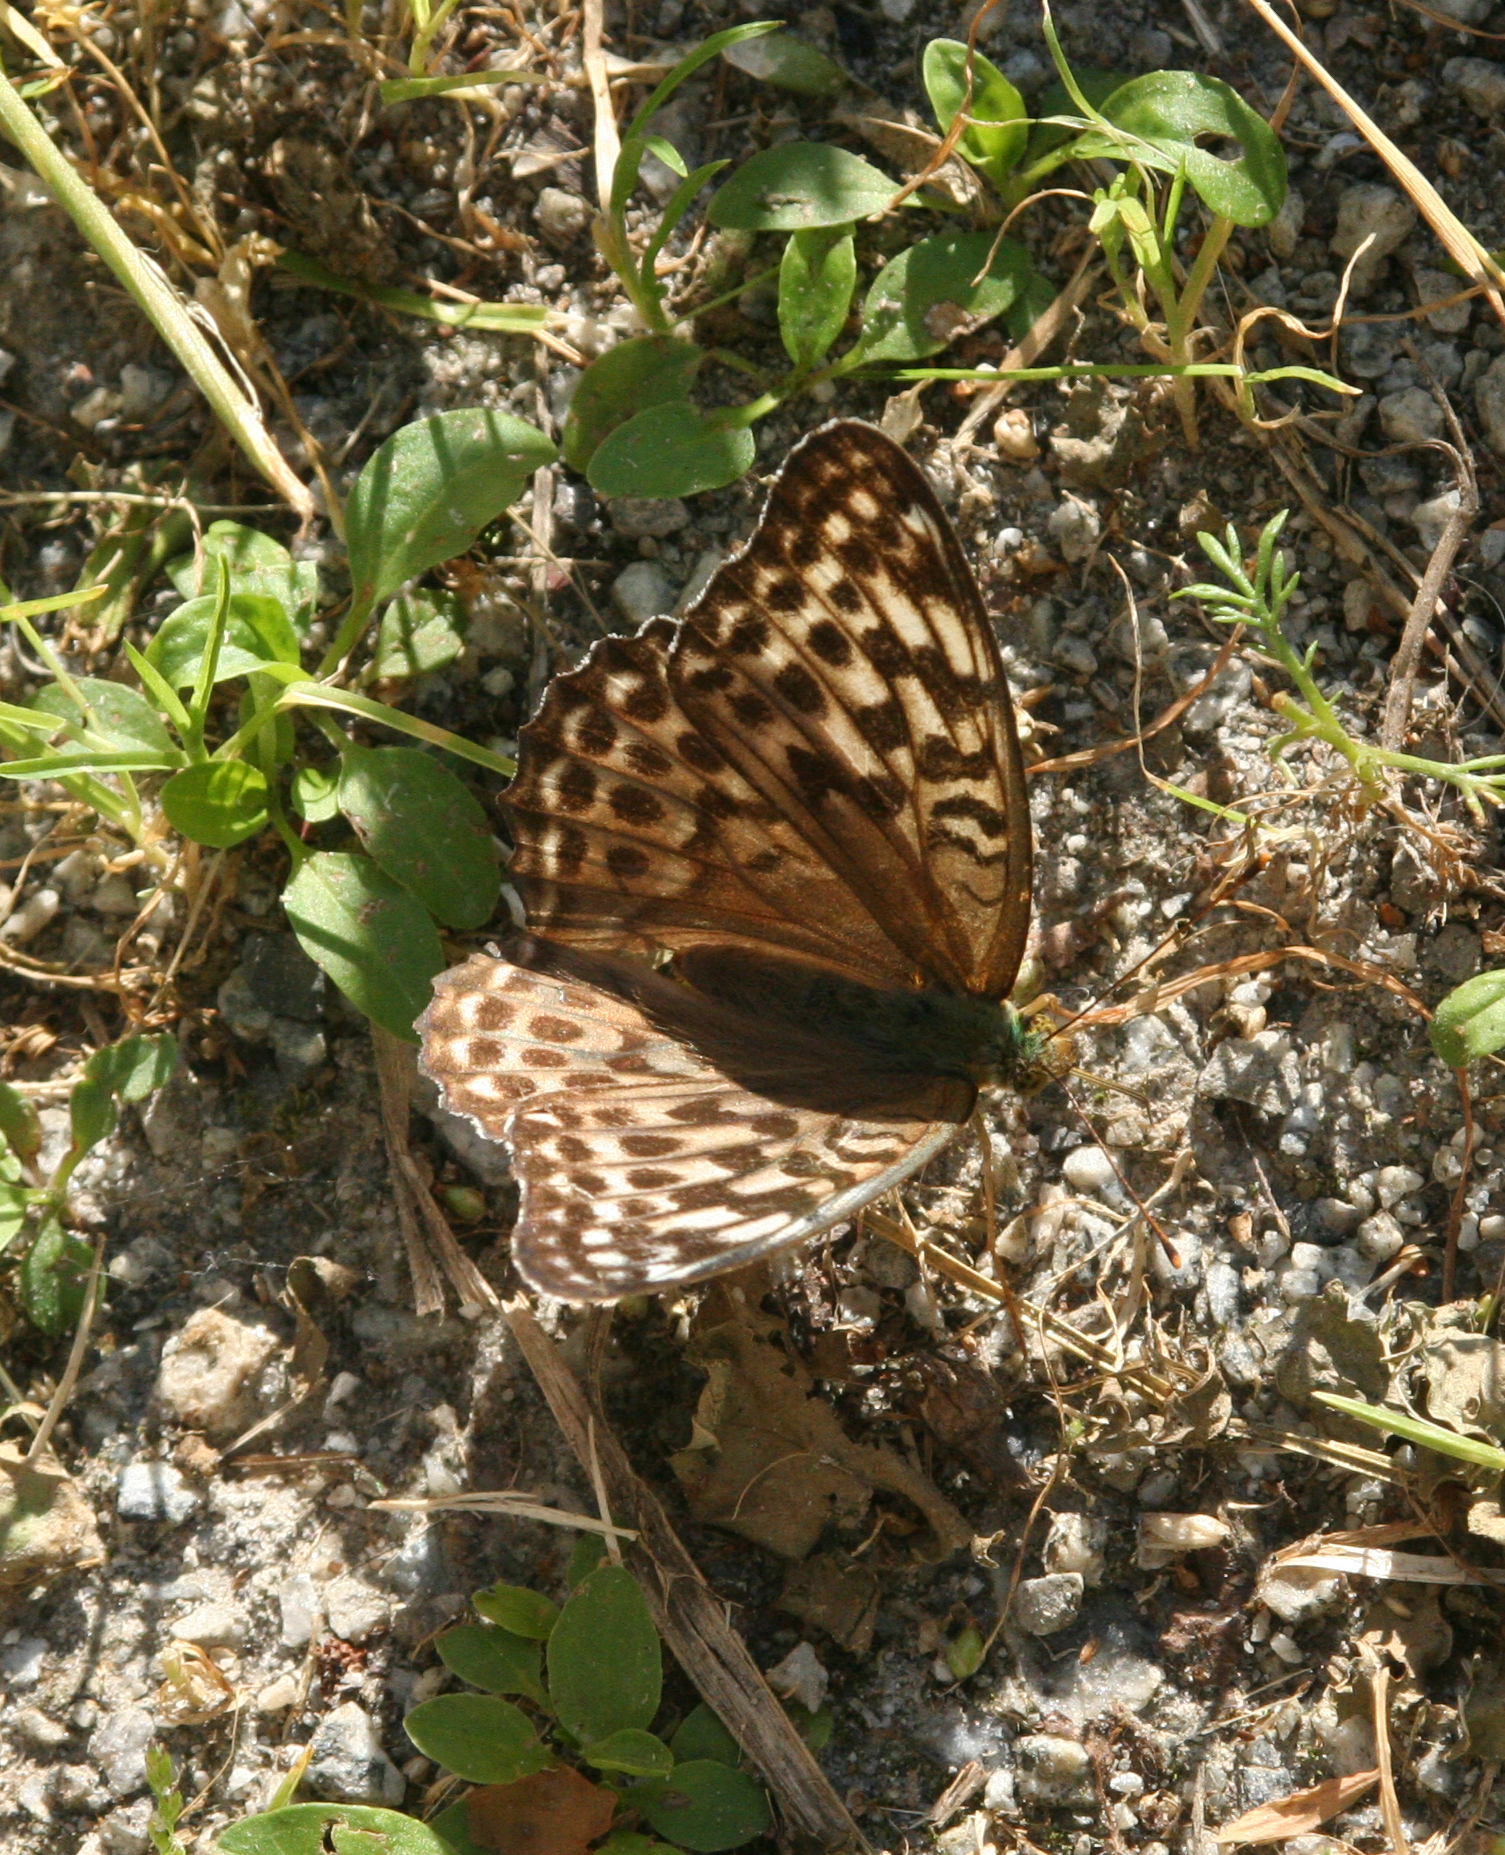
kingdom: Animalia
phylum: Arthropoda
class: Insecta
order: Lepidoptera
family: Nymphalidae
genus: Argynnis
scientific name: Argynnis paphia
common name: Silver-washed fritillary
